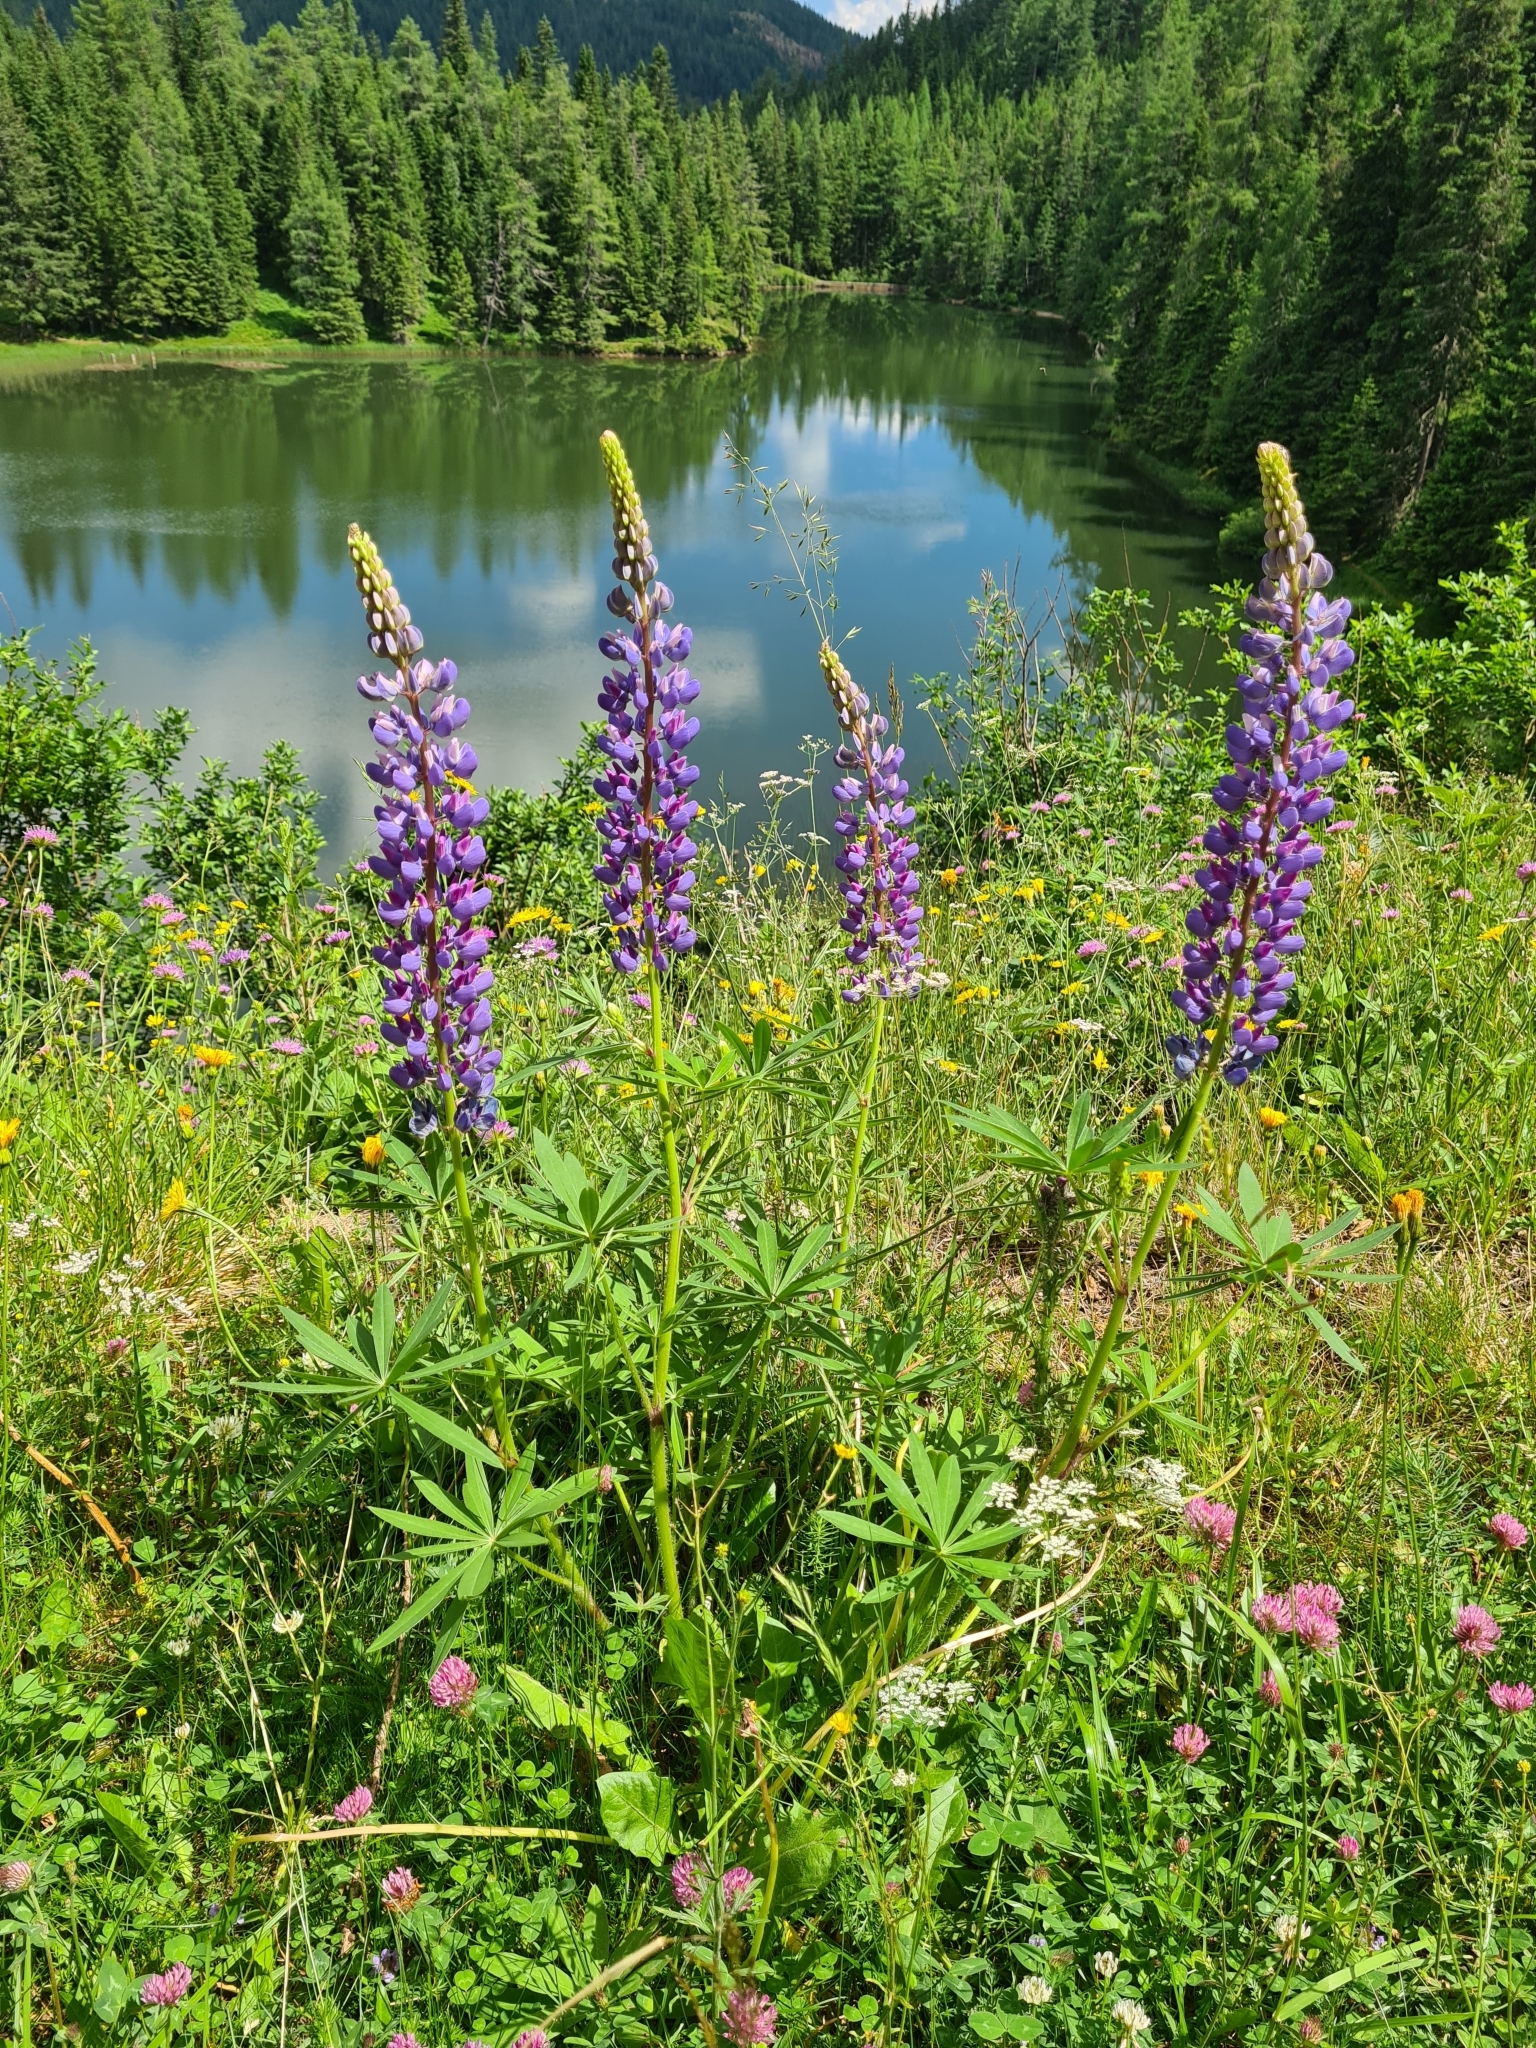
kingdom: Plantae
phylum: Tracheophyta
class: Magnoliopsida
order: Fabales
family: Fabaceae
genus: Lupinus
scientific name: Lupinus polyphyllus
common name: Garden lupin
